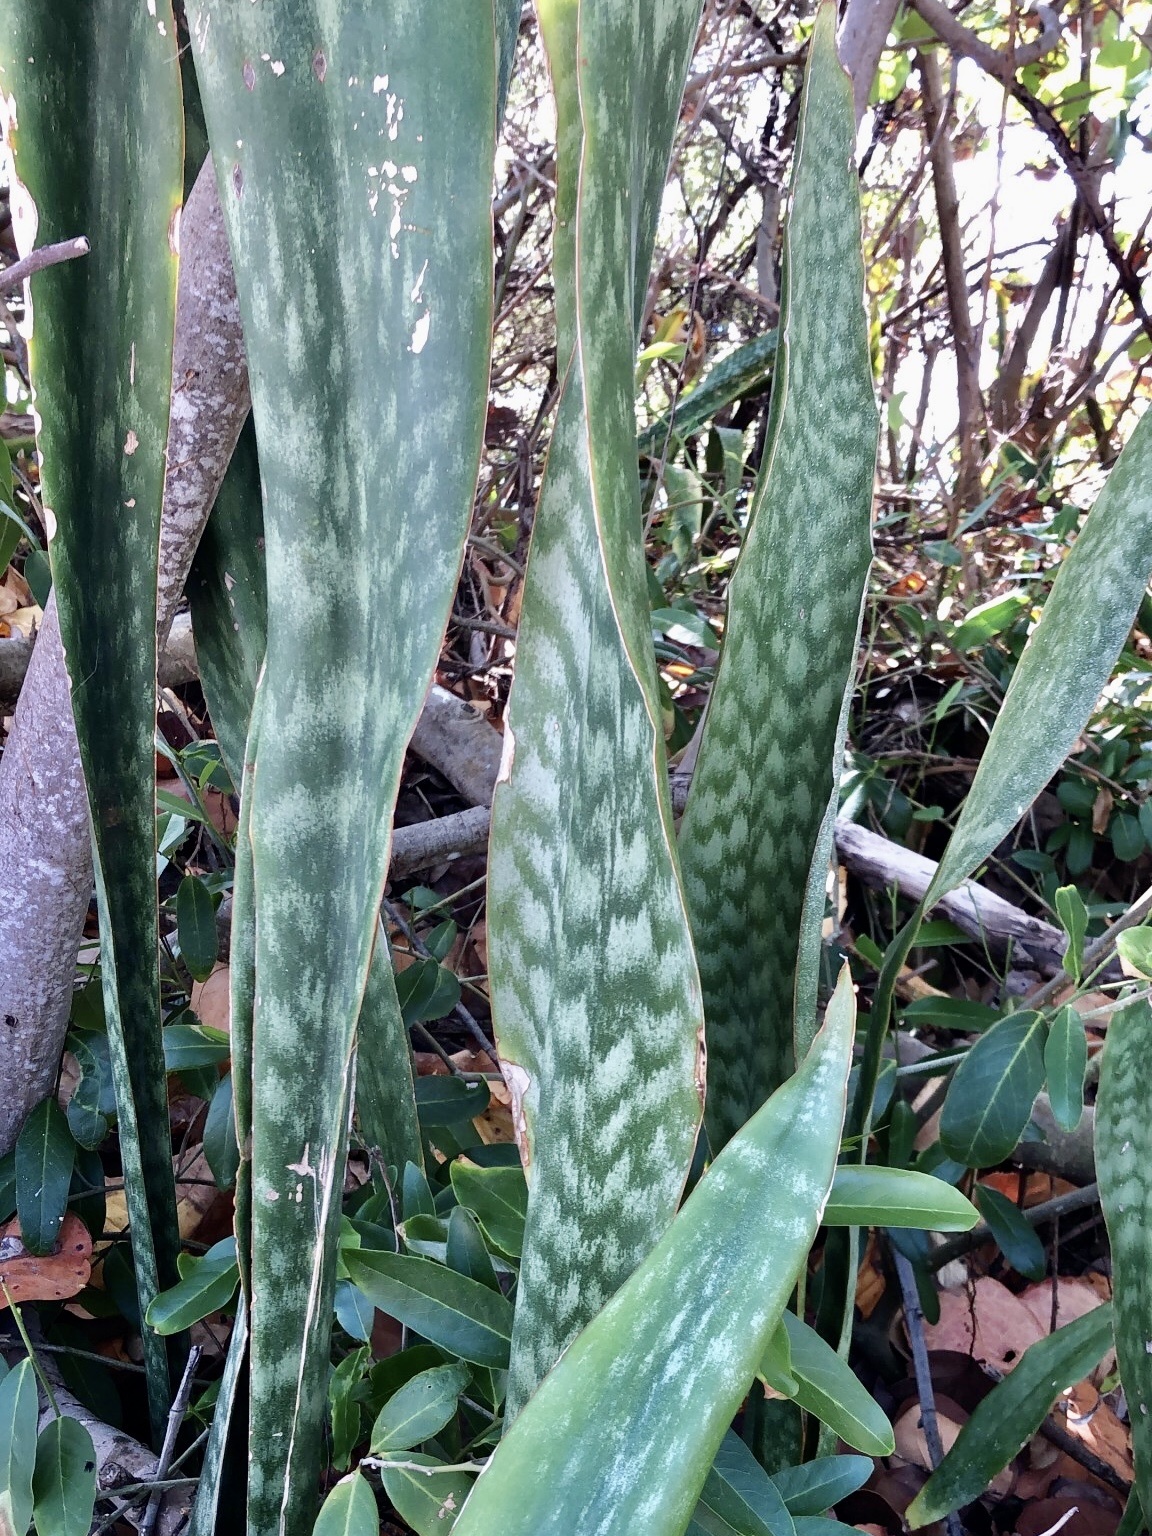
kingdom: Plantae
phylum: Tracheophyta
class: Liliopsida
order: Asparagales
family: Asparagaceae
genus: Dracaena
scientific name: Dracaena hyacinthoides
